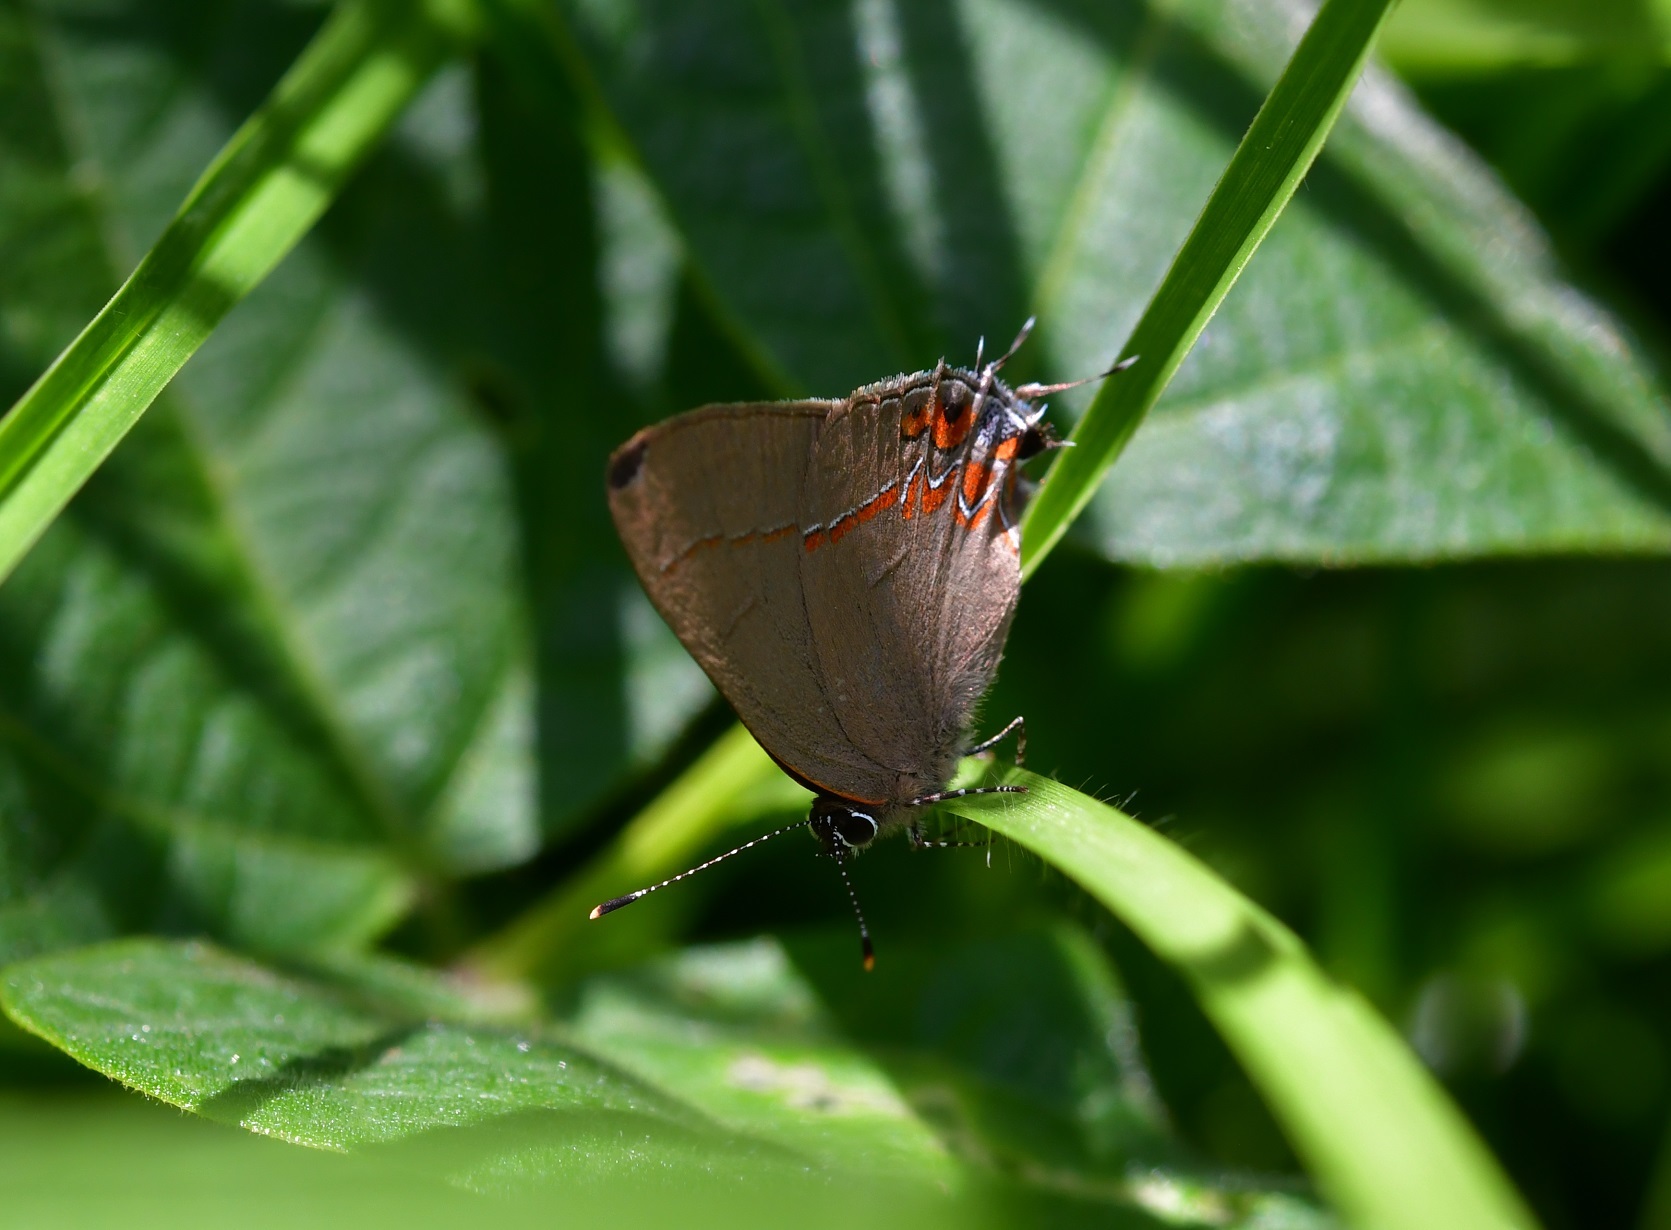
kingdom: Animalia
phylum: Arthropoda
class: Insecta
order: Lepidoptera
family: Lycaenidae
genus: Calycopis
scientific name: Calycopis isobeon
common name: Dusky-blue groundstreak
